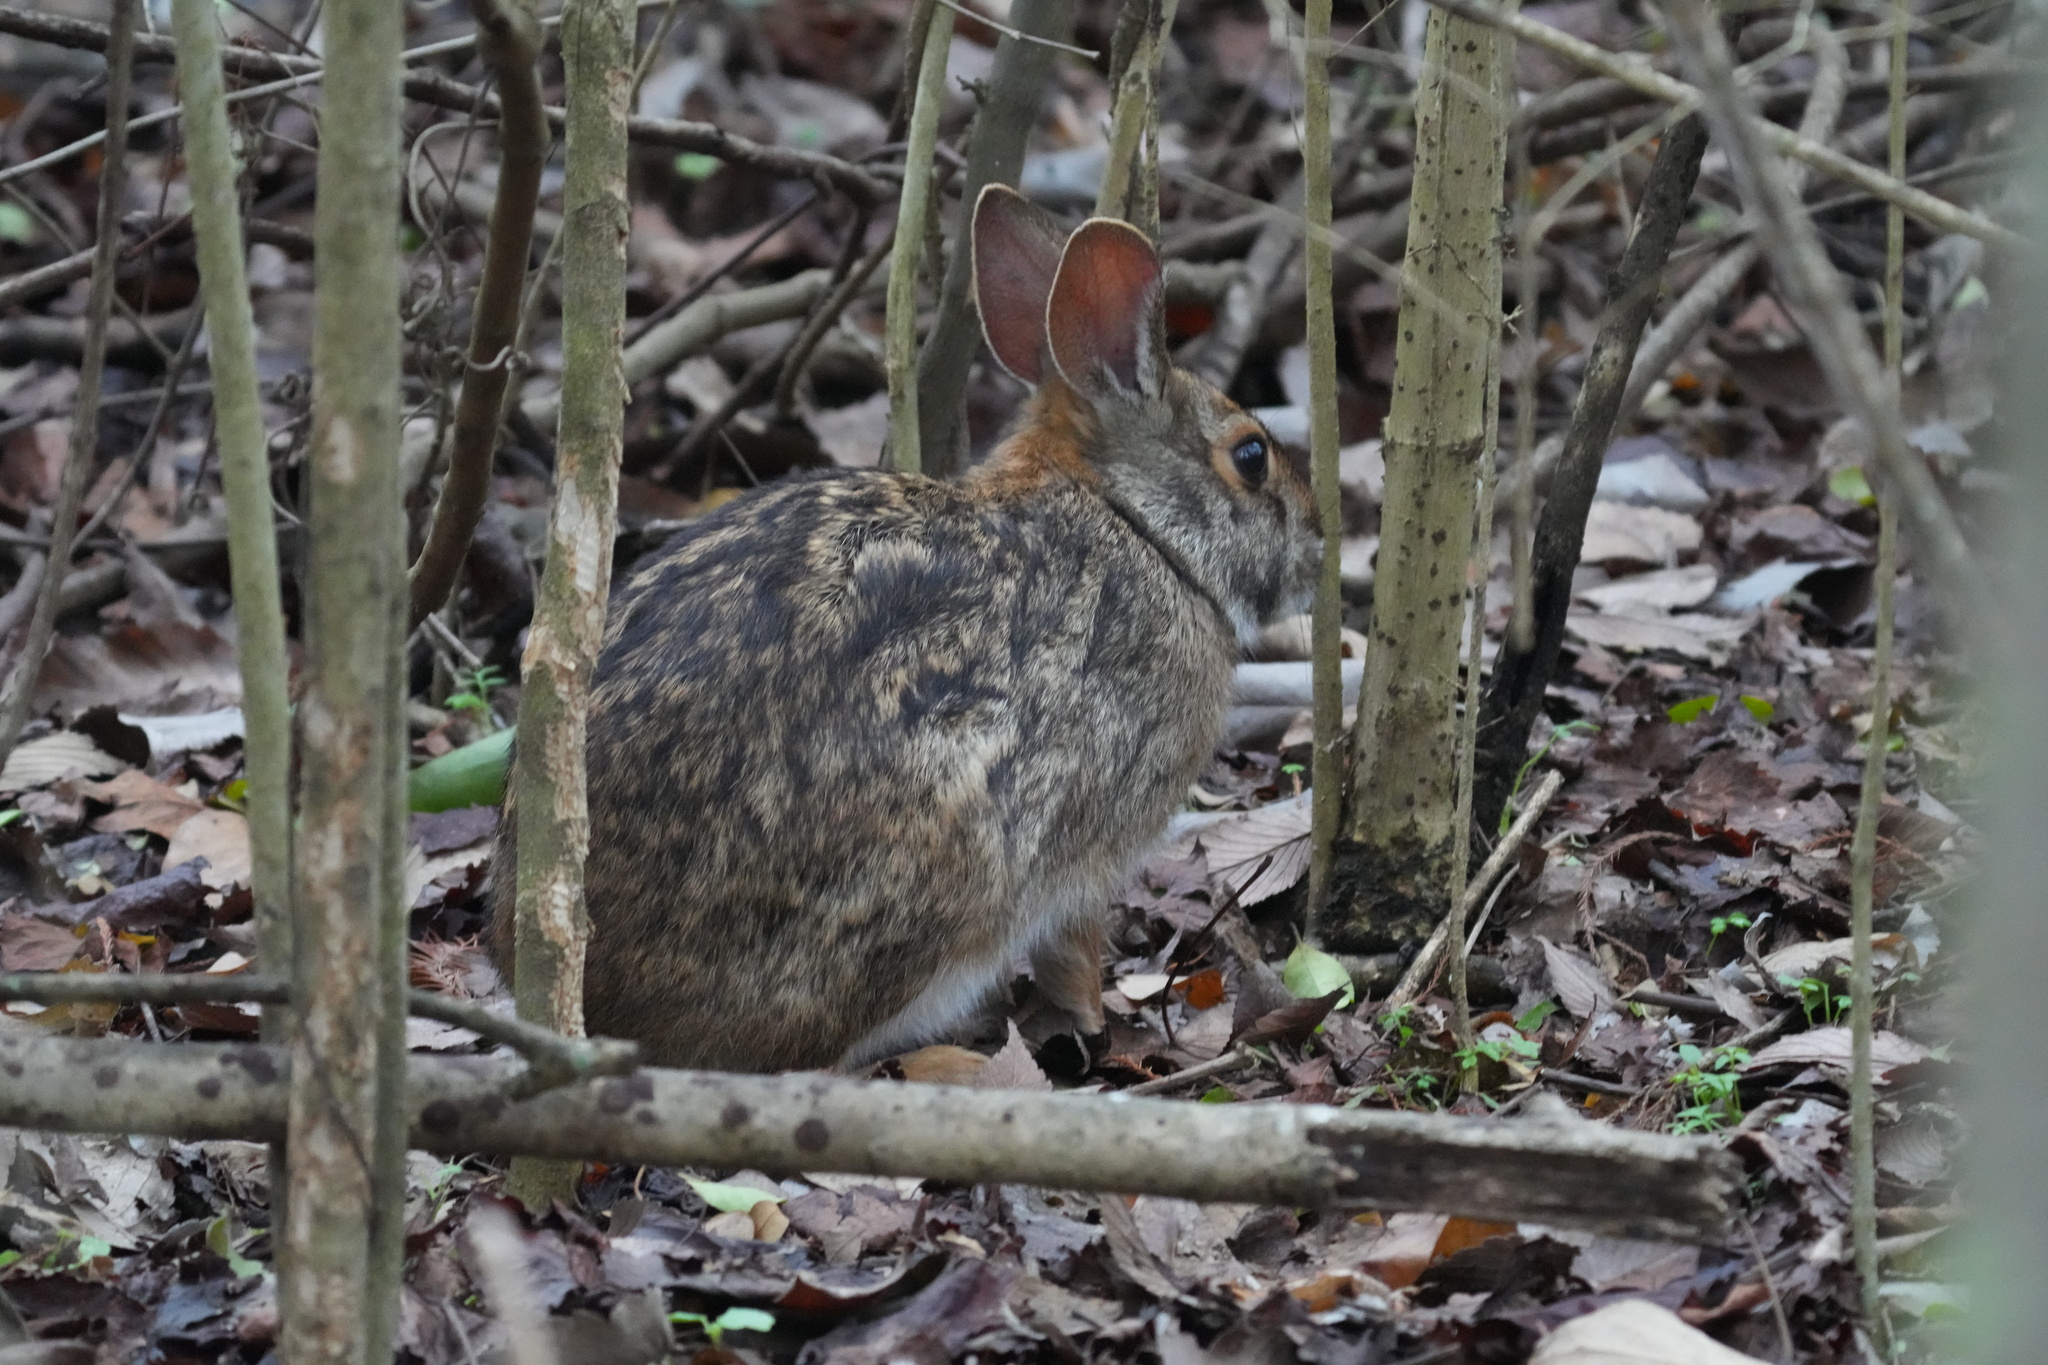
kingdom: Animalia
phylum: Chordata
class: Mammalia
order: Lagomorpha
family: Leporidae
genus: Sylvilagus
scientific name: Sylvilagus aquaticus
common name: Swamp rabbit
